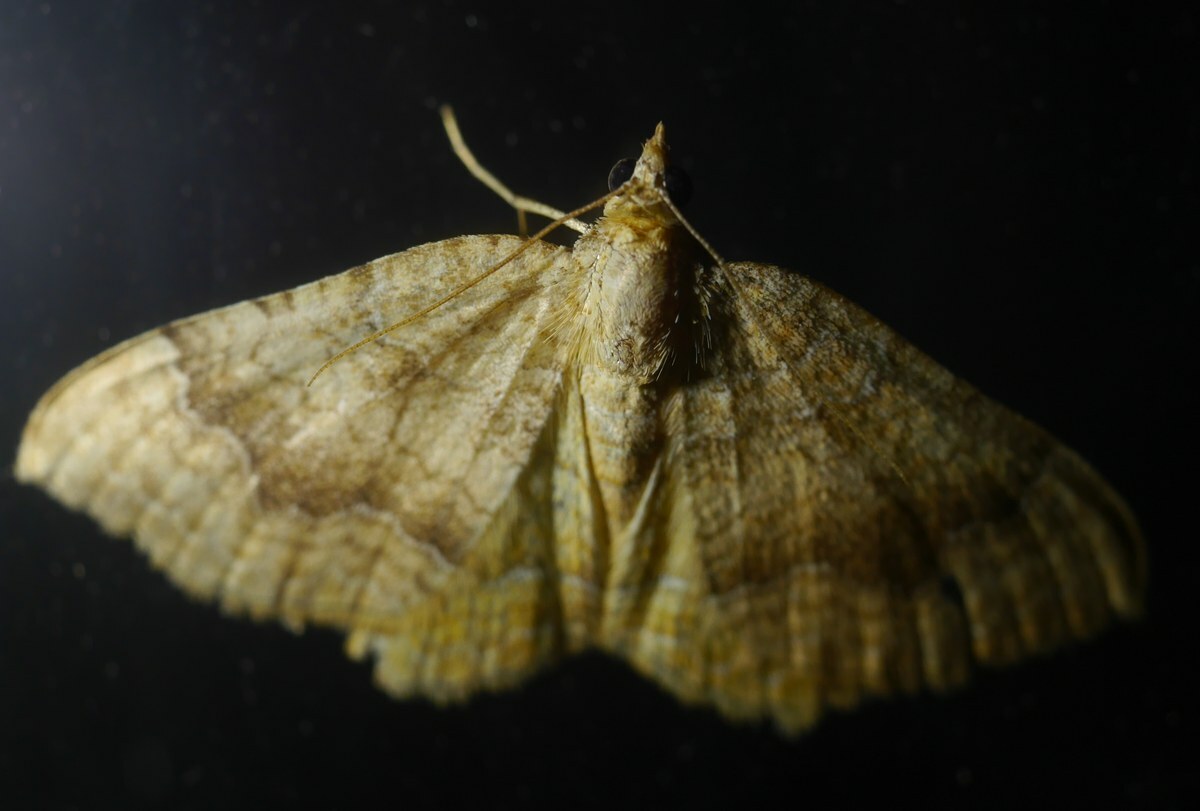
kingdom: Animalia
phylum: Arthropoda
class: Insecta
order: Lepidoptera
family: Geometridae
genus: Camptogramma
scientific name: Camptogramma bilineata
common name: Yellow shell
